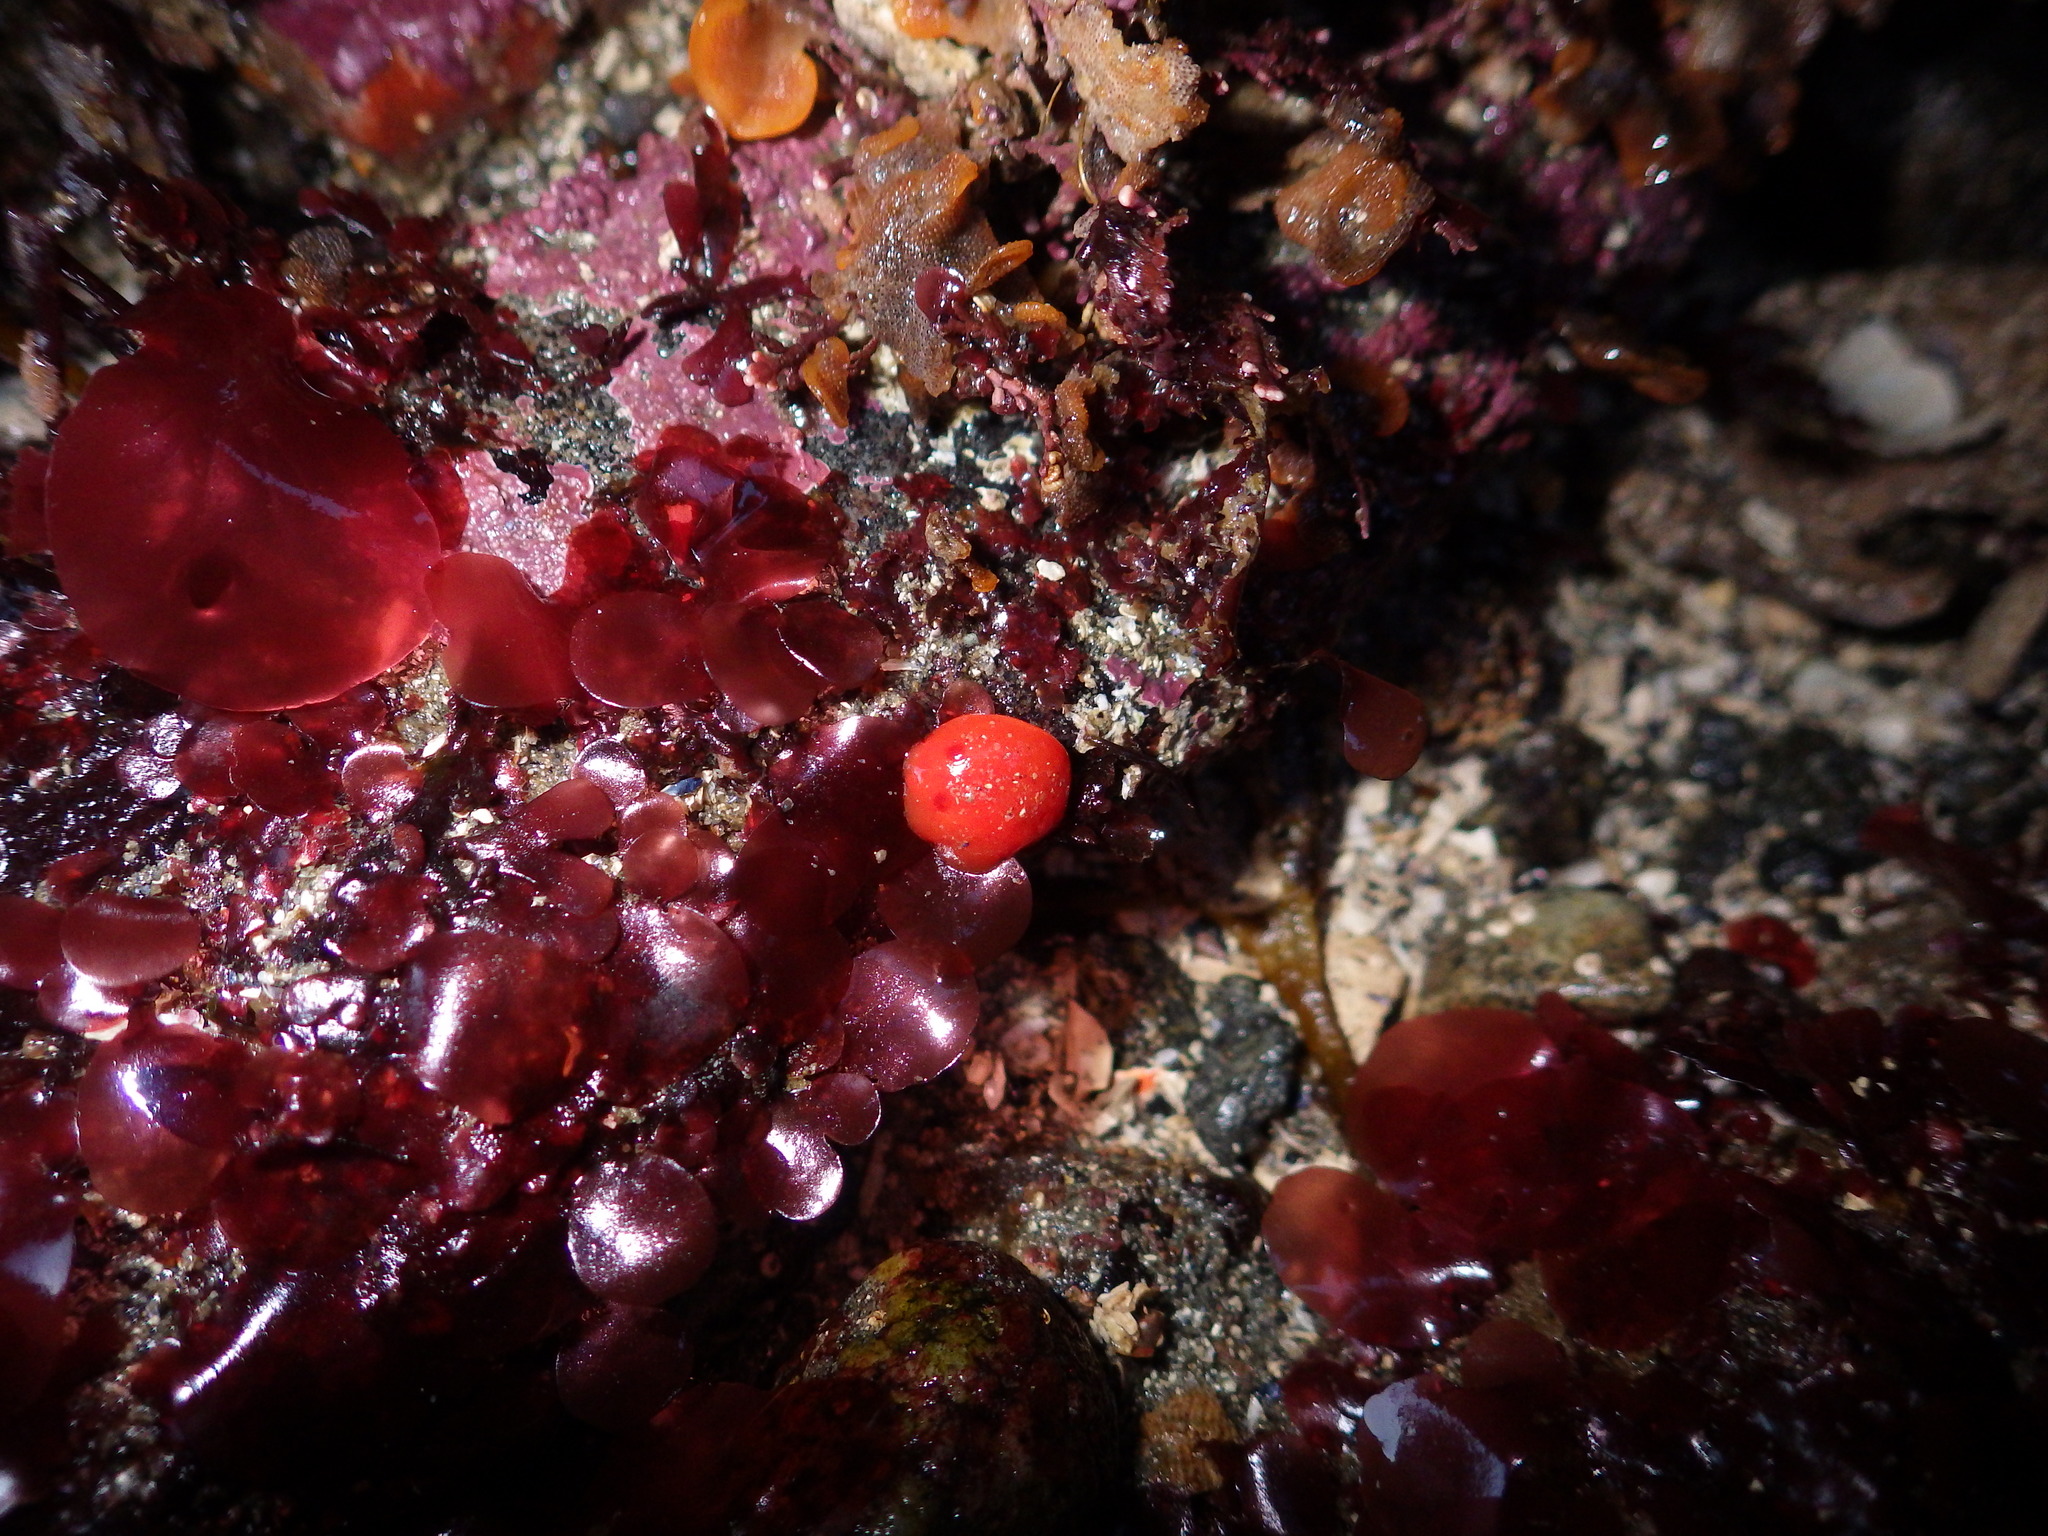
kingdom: Animalia
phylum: Mollusca
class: Gastropoda
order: Nudibranchia
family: Discodorididae
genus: Rostanga
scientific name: Rostanga pulchra
